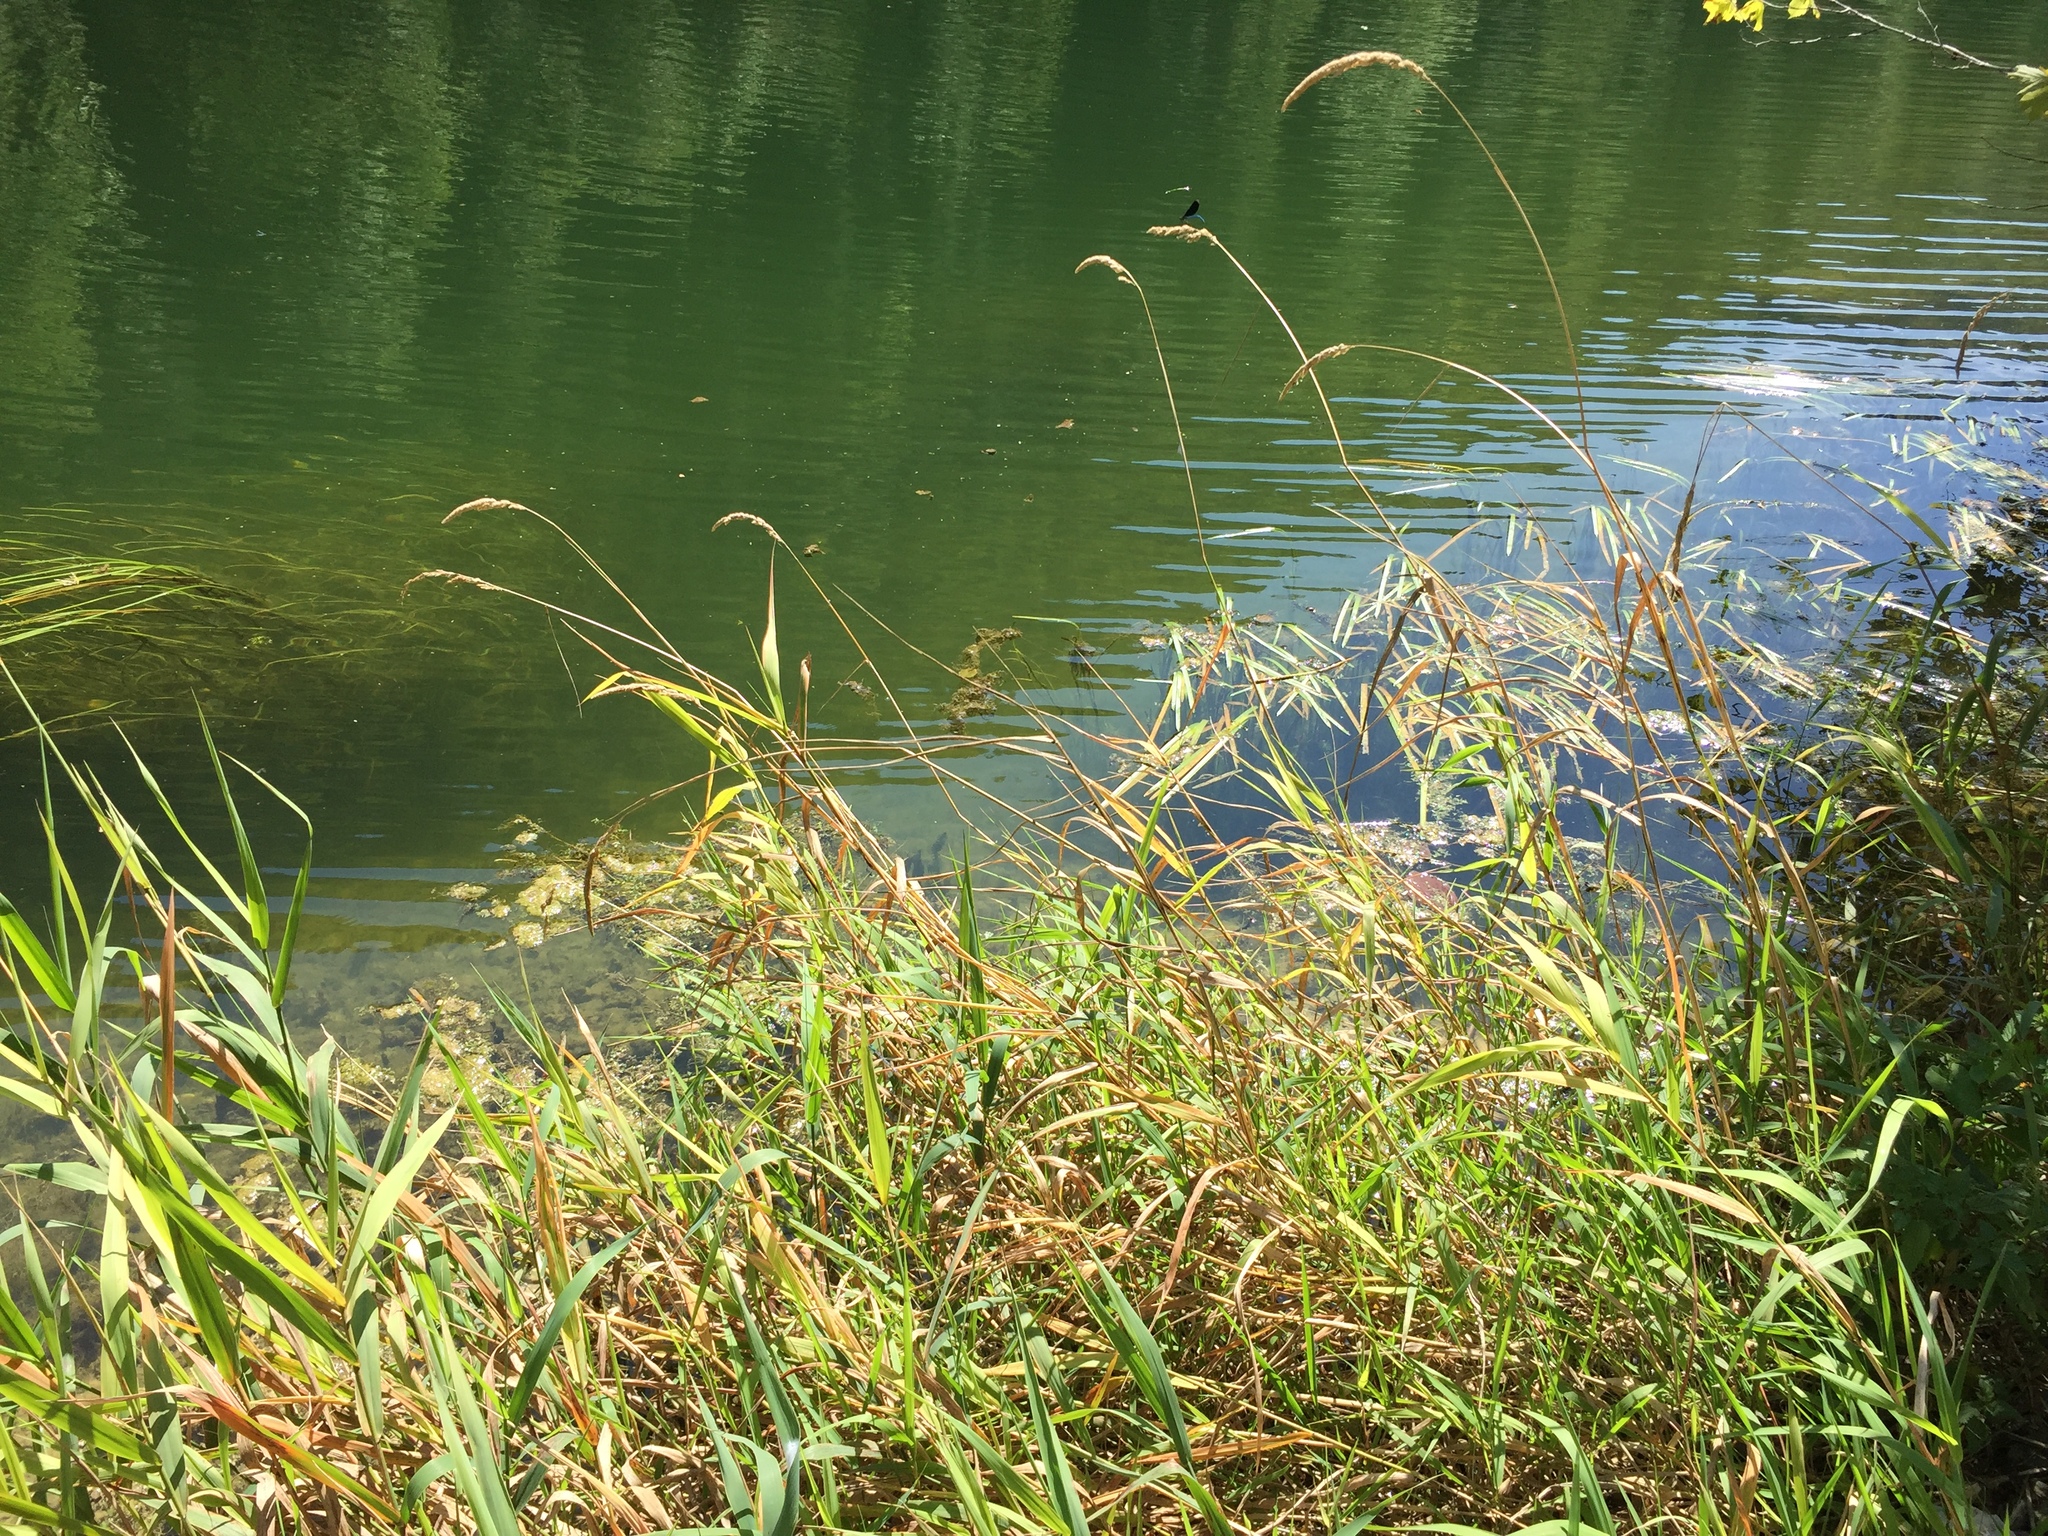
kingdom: Plantae
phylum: Tracheophyta
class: Liliopsida
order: Poales
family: Poaceae
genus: Phalaris
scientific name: Phalaris arundinacea
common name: Reed canary-grass
